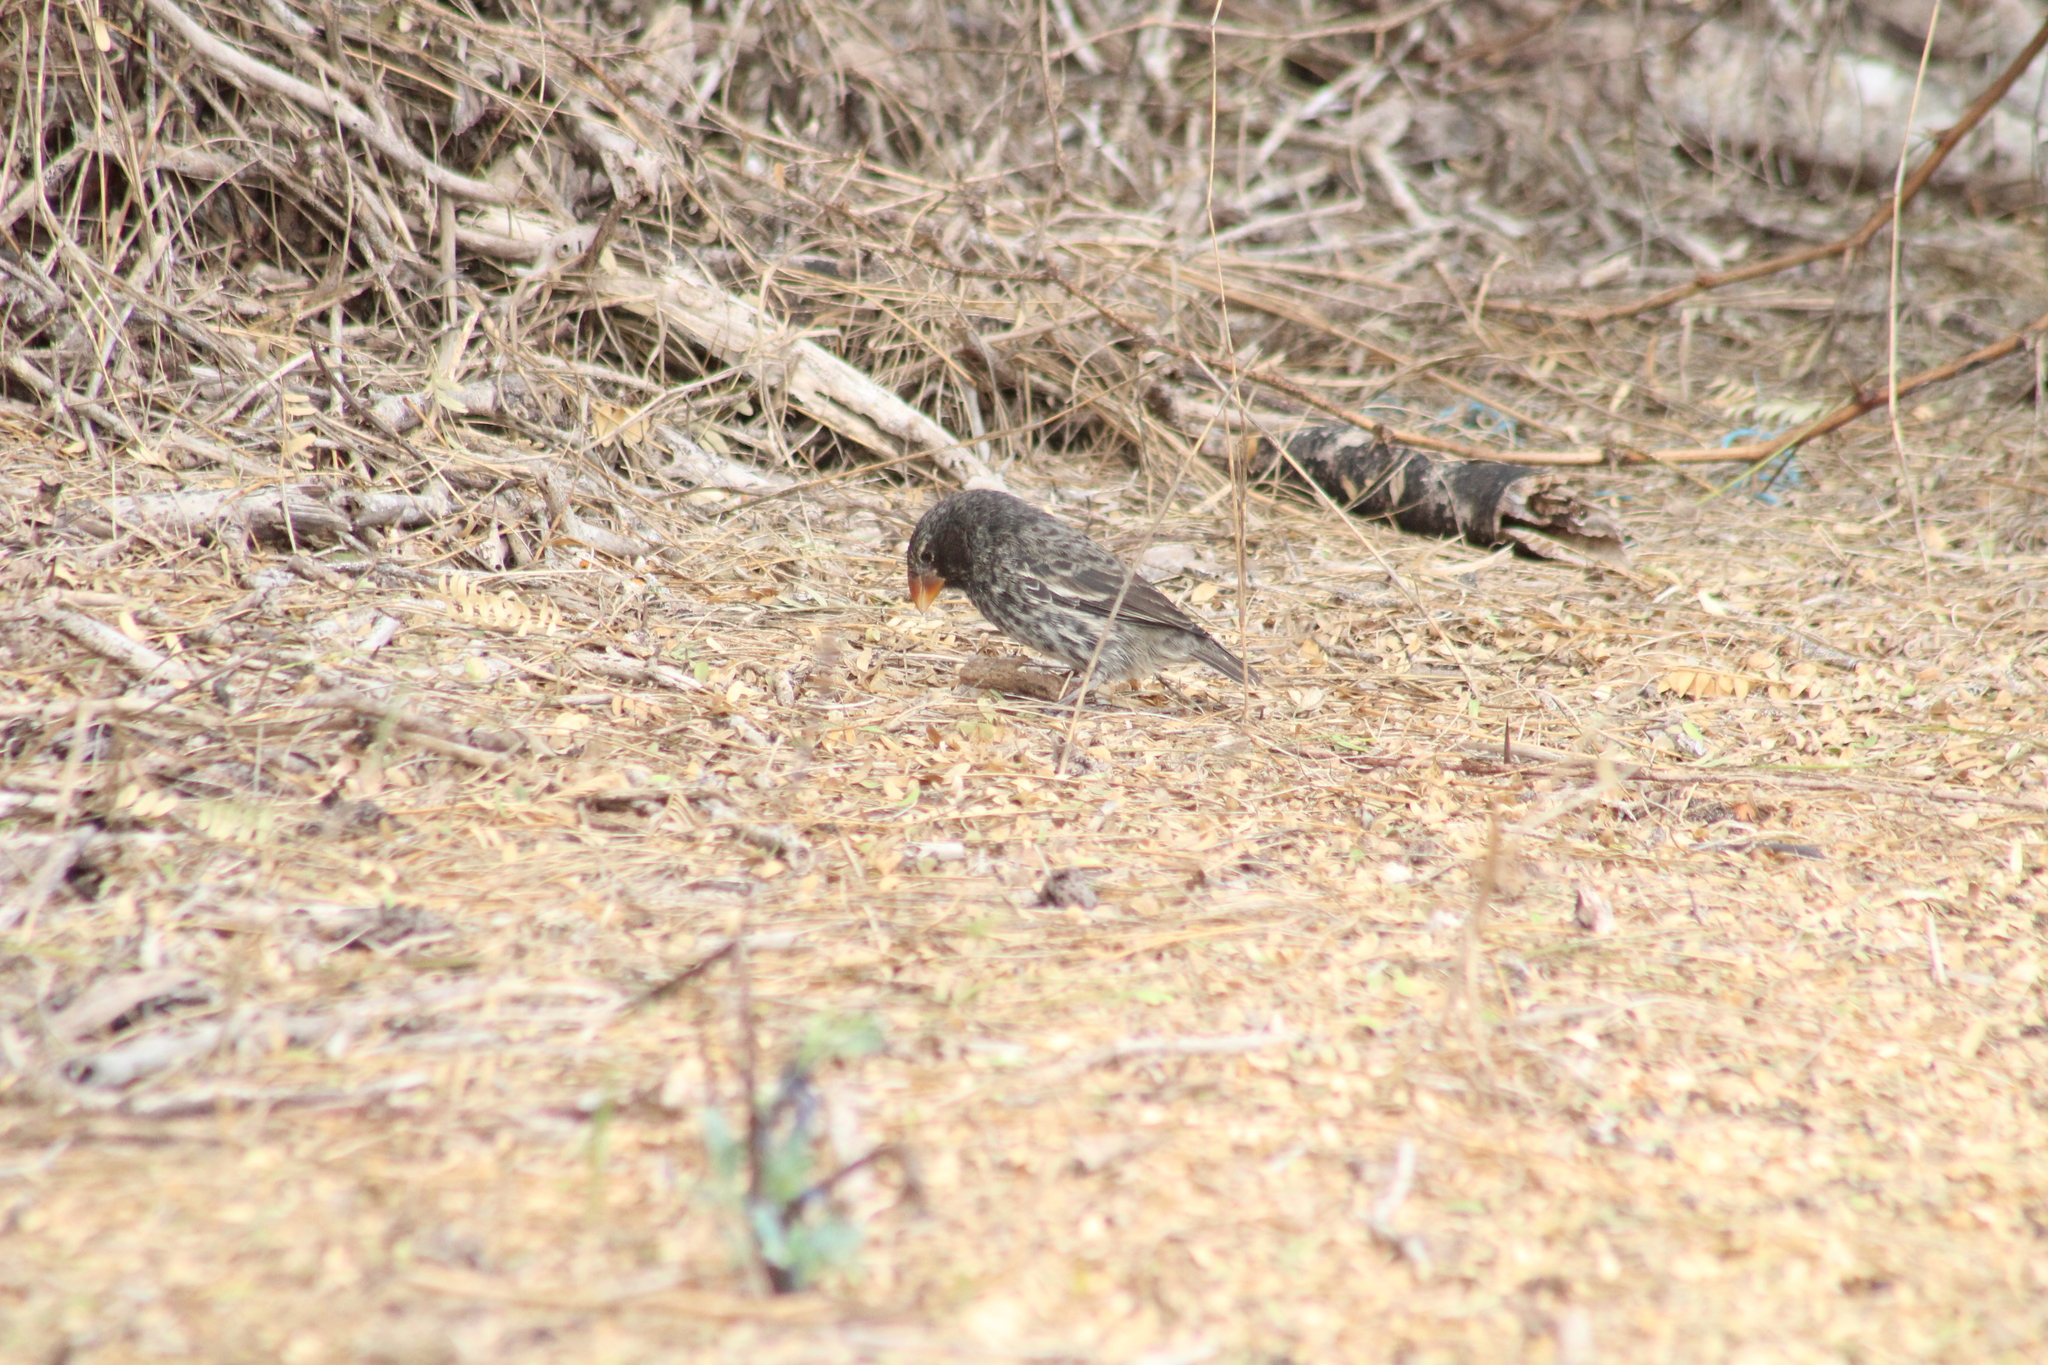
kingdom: Animalia
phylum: Chordata
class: Aves
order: Passeriformes
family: Thraupidae
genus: Geospiza
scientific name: Geospiza fortis
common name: Medium ground finch
